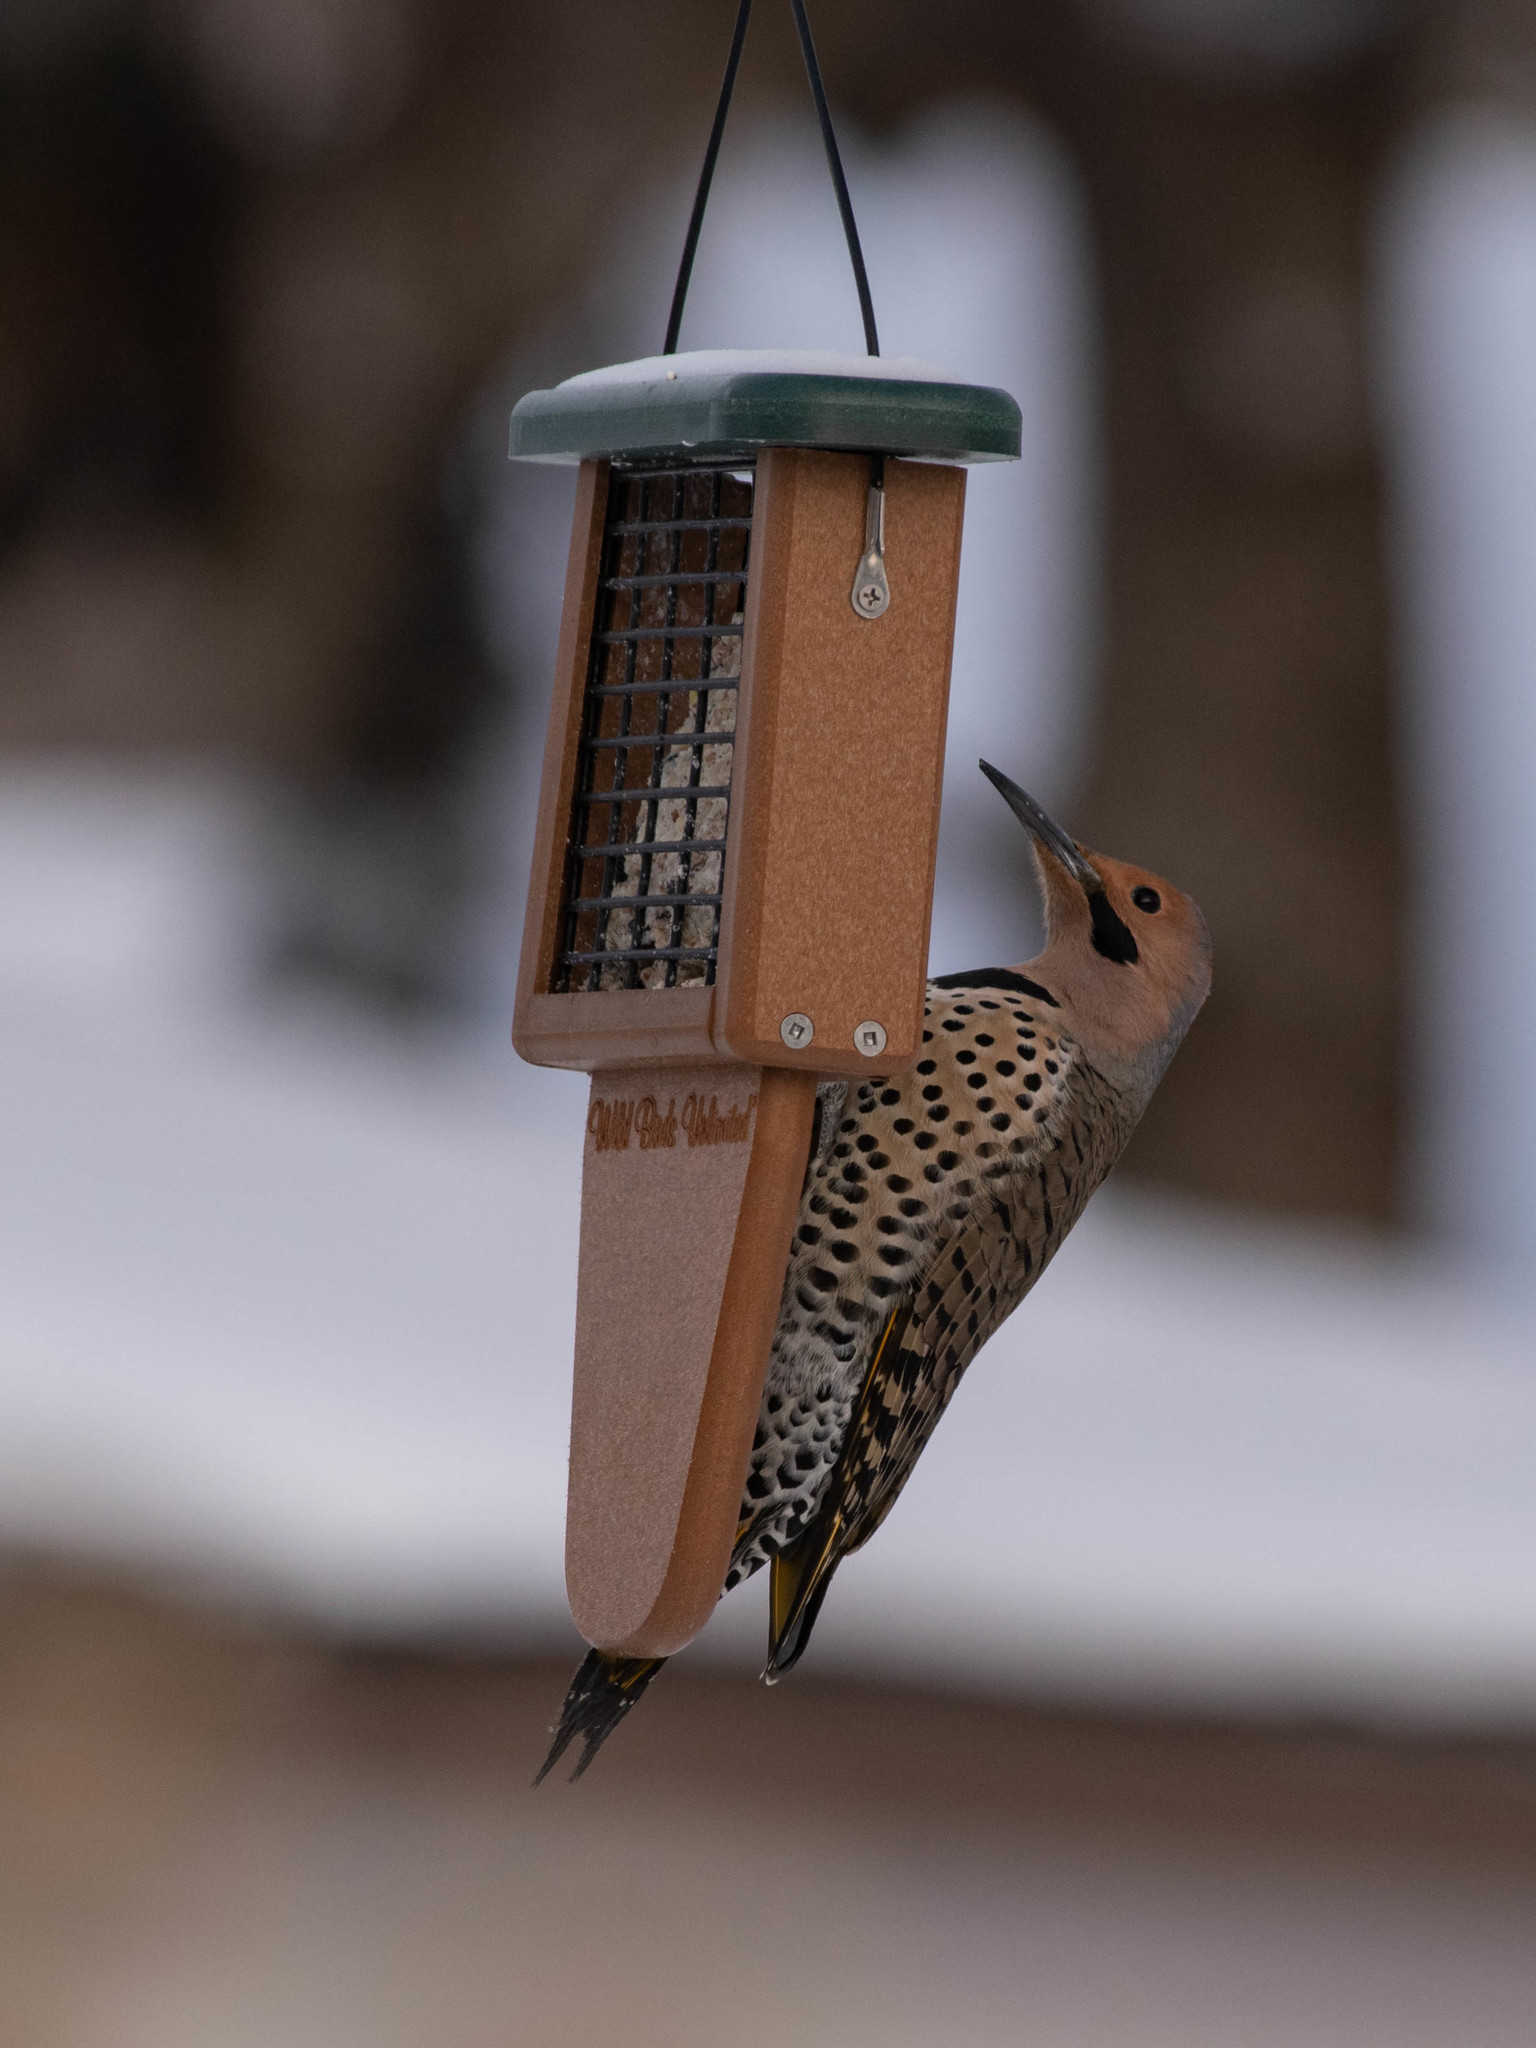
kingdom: Animalia
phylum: Chordata
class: Aves
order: Piciformes
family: Picidae
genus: Colaptes
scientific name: Colaptes auratus
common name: Northern flicker
